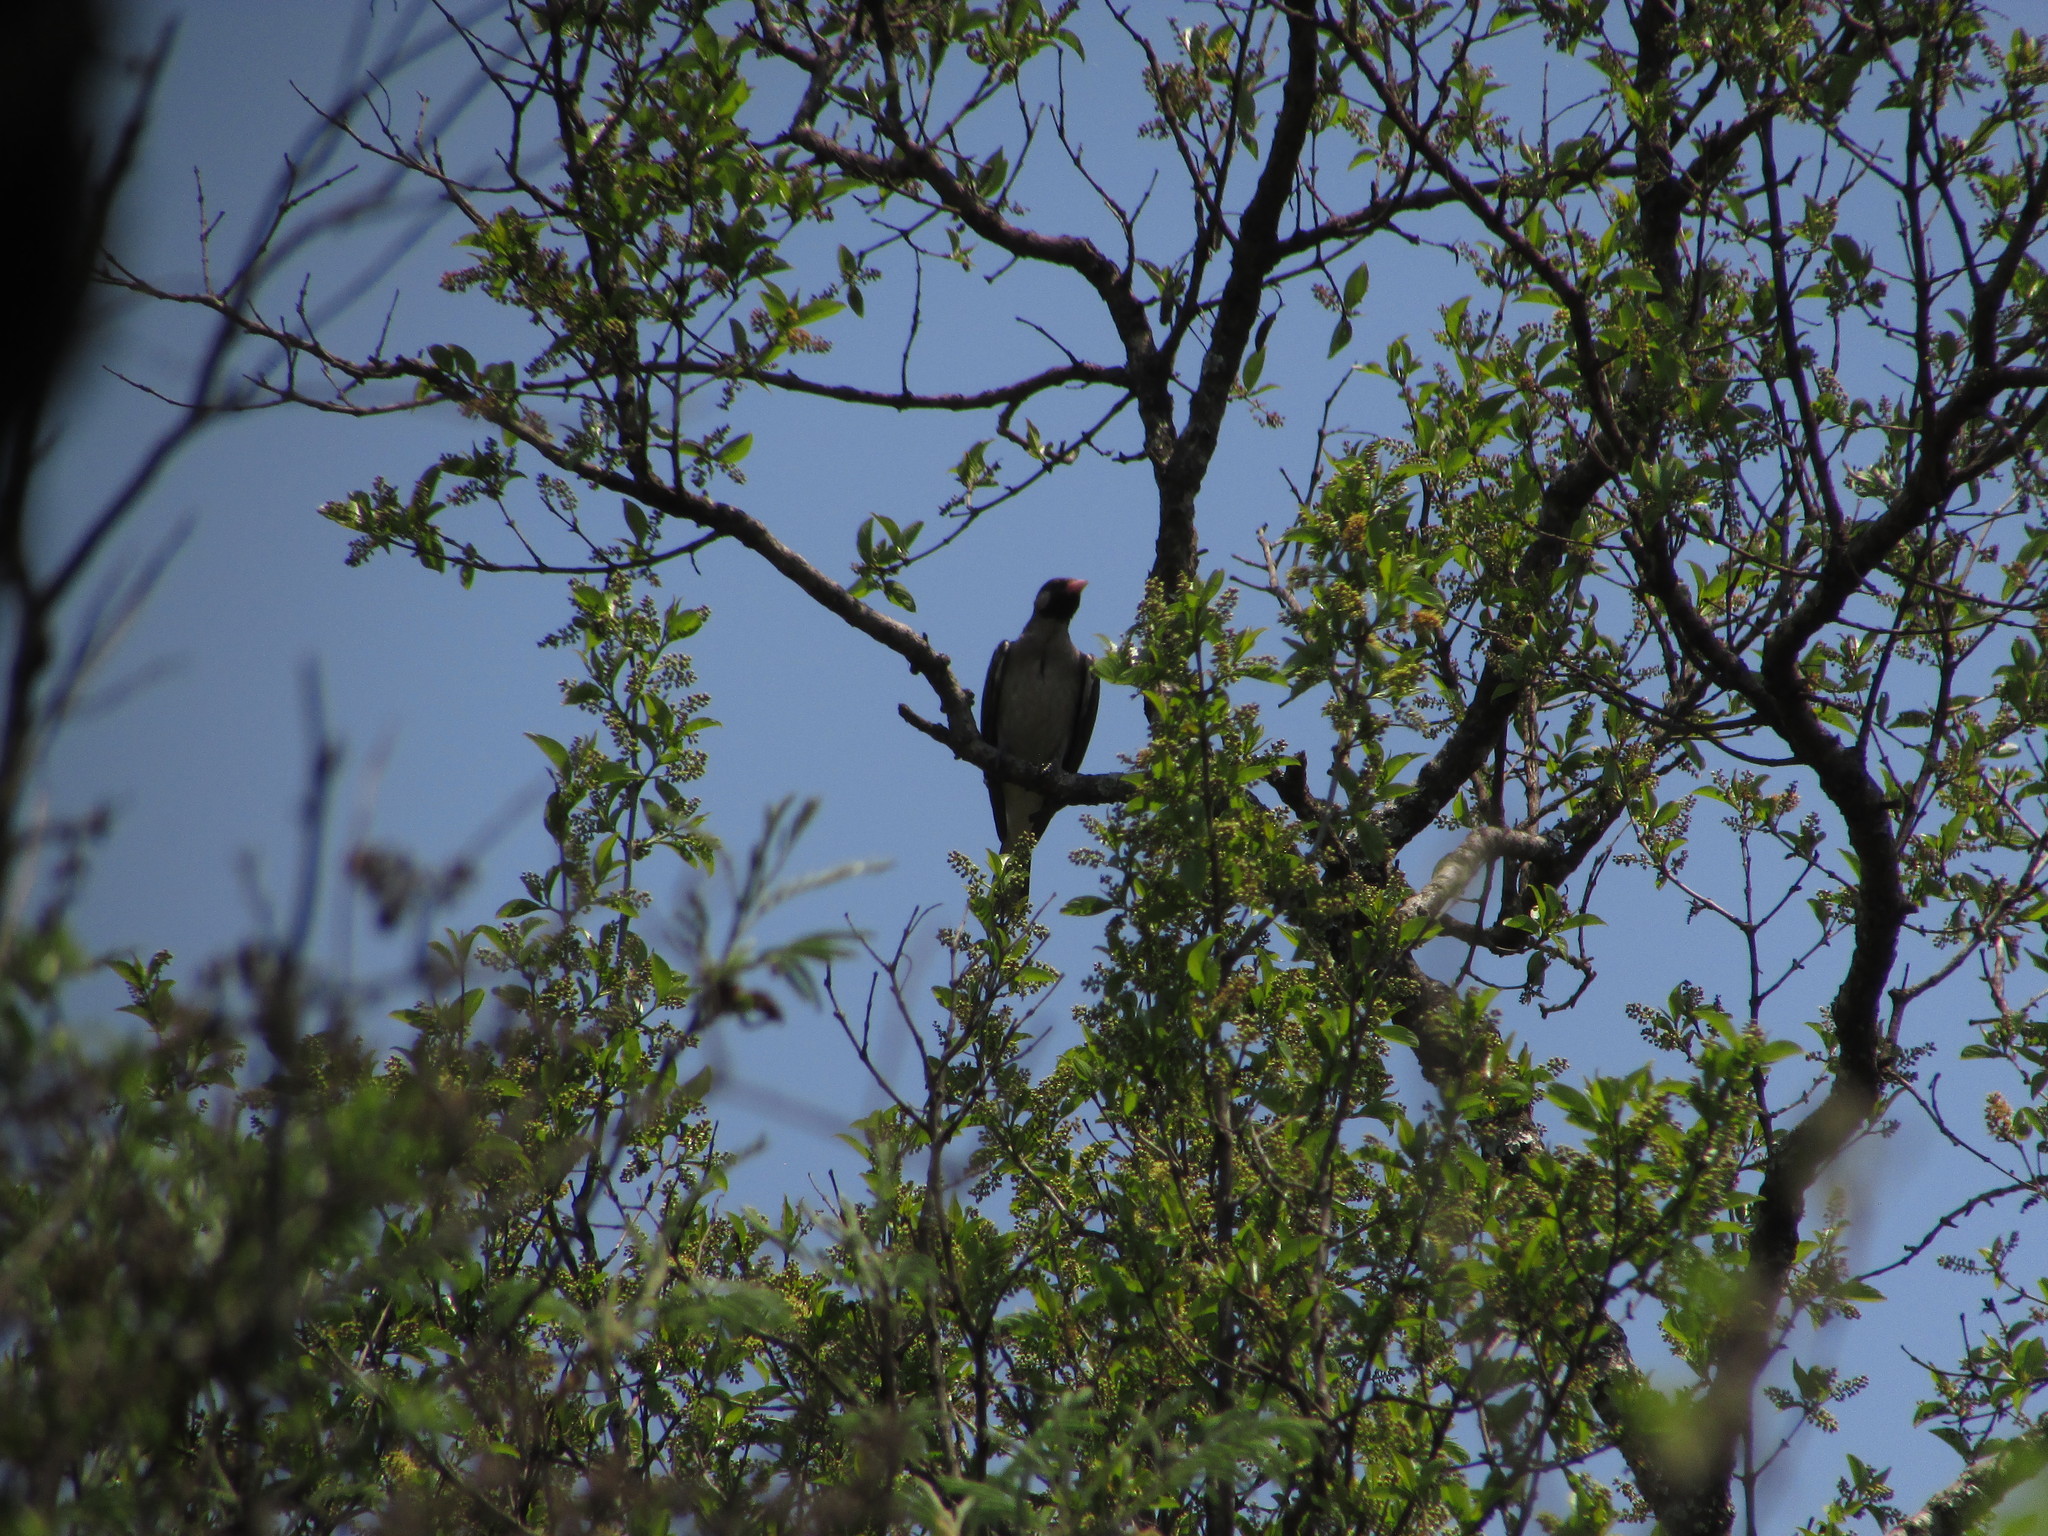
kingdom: Animalia
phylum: Chordata
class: Aves
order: Piciformes
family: Indicatoridae
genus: Indicator
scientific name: Indicator indicator
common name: Greater honeyguide
